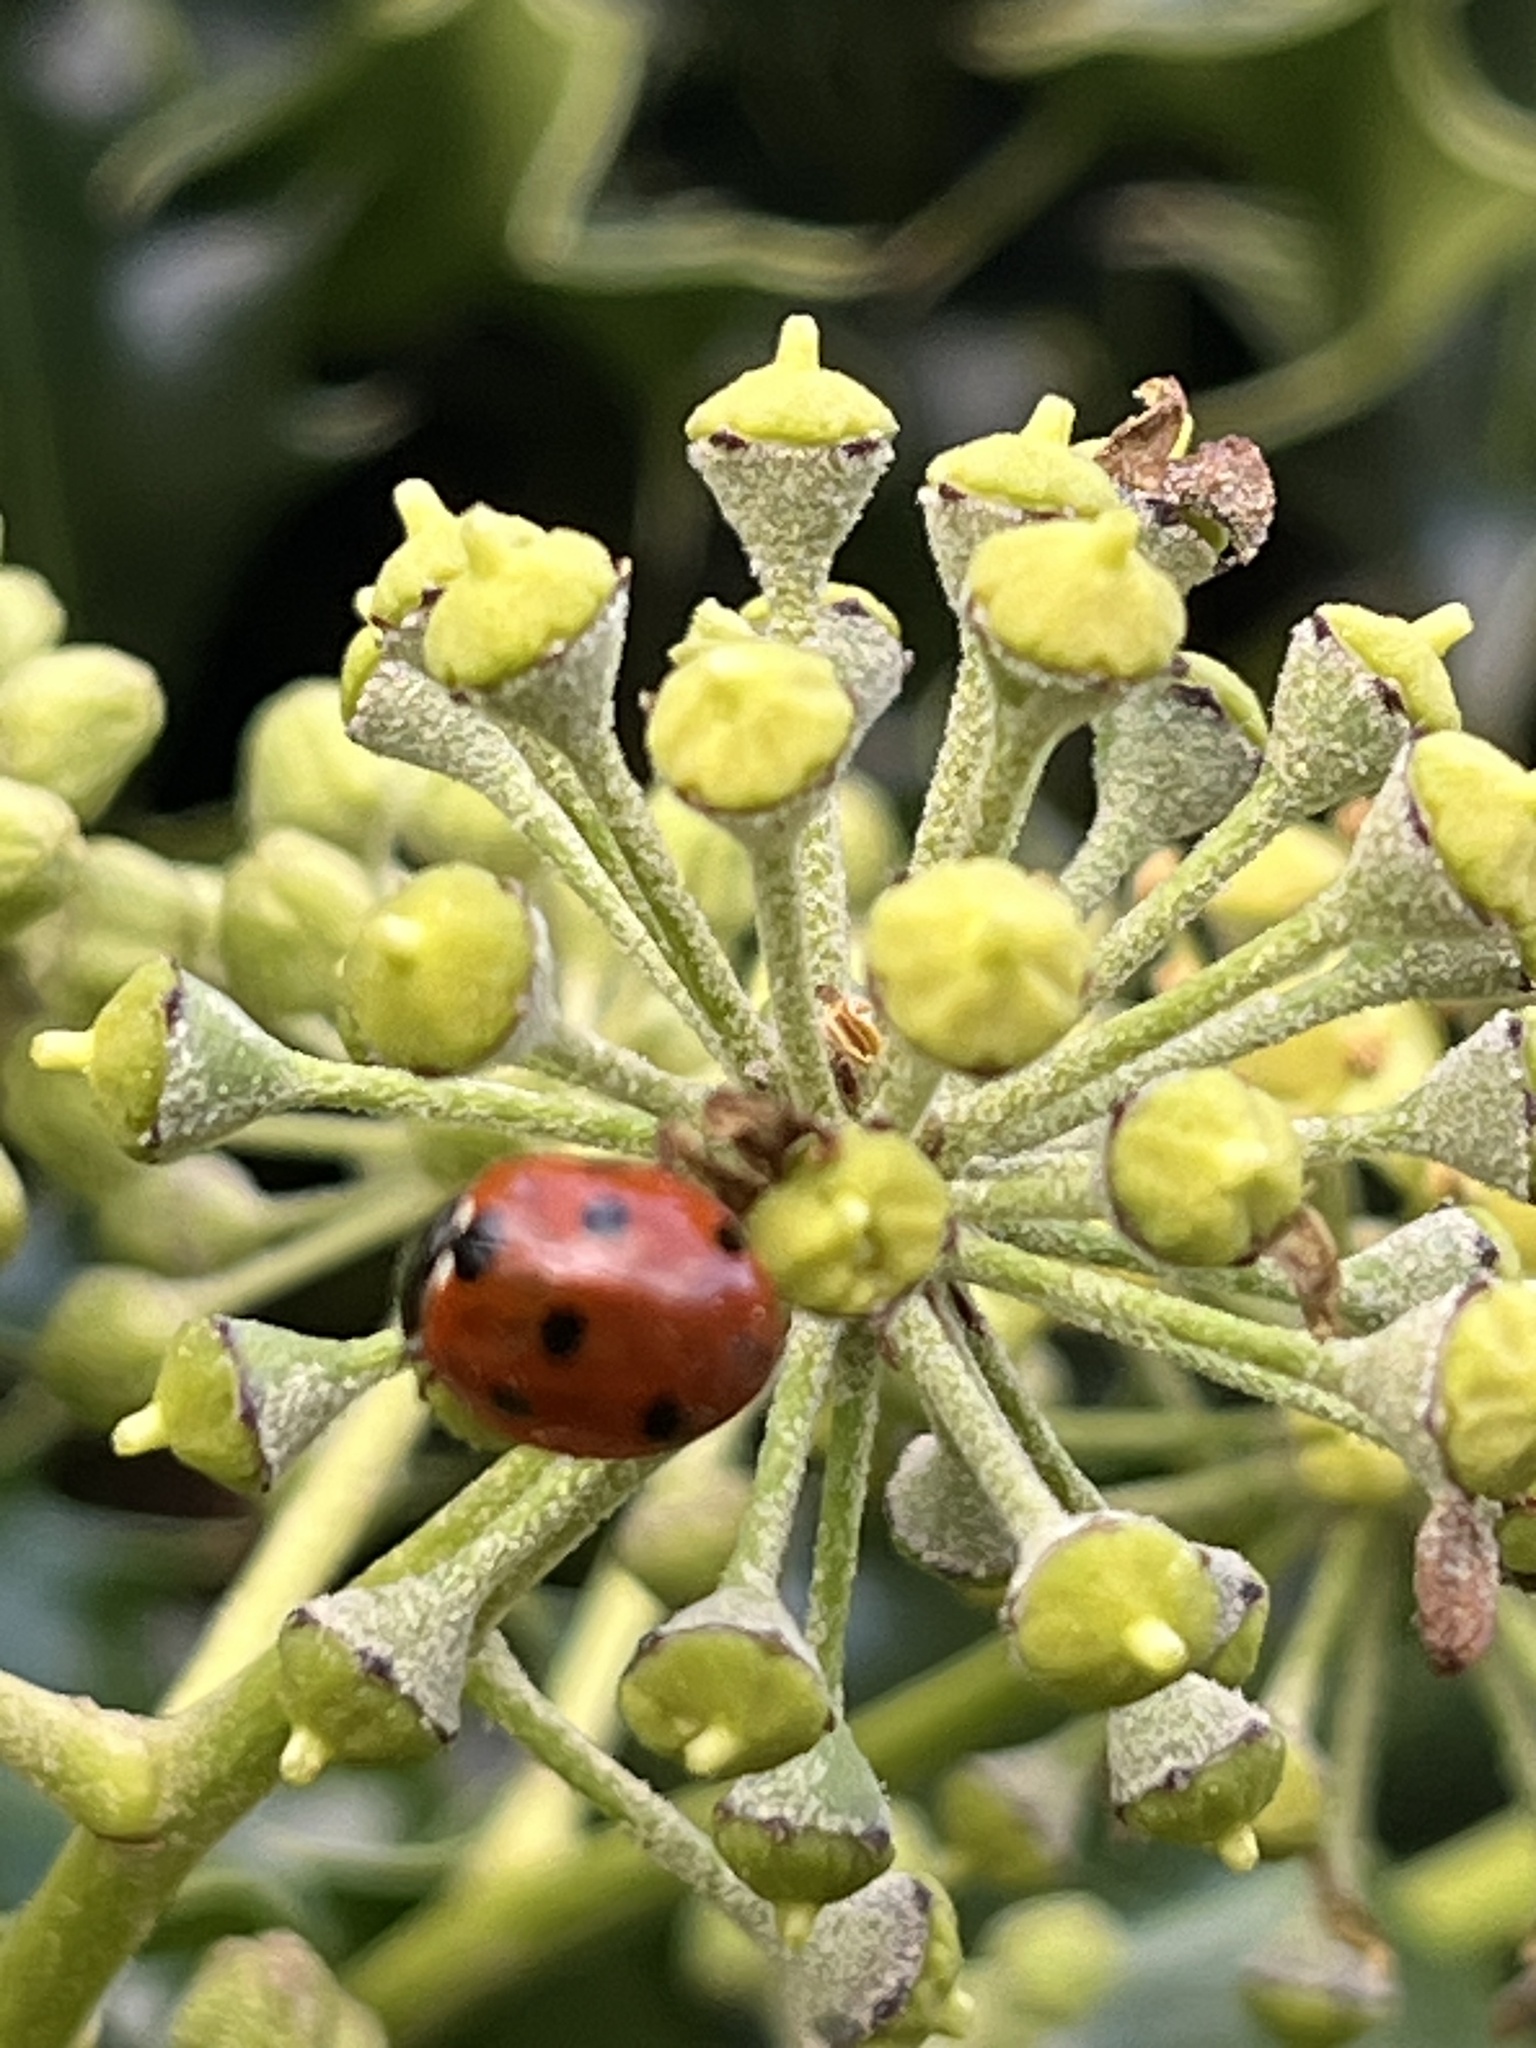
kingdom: Animalia
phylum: Arthropoda
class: Insecta
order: Coleoptera
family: Coccinellidae
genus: Coccinella
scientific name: Coccinella septempunctata
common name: Sevenspotted lady beetle
